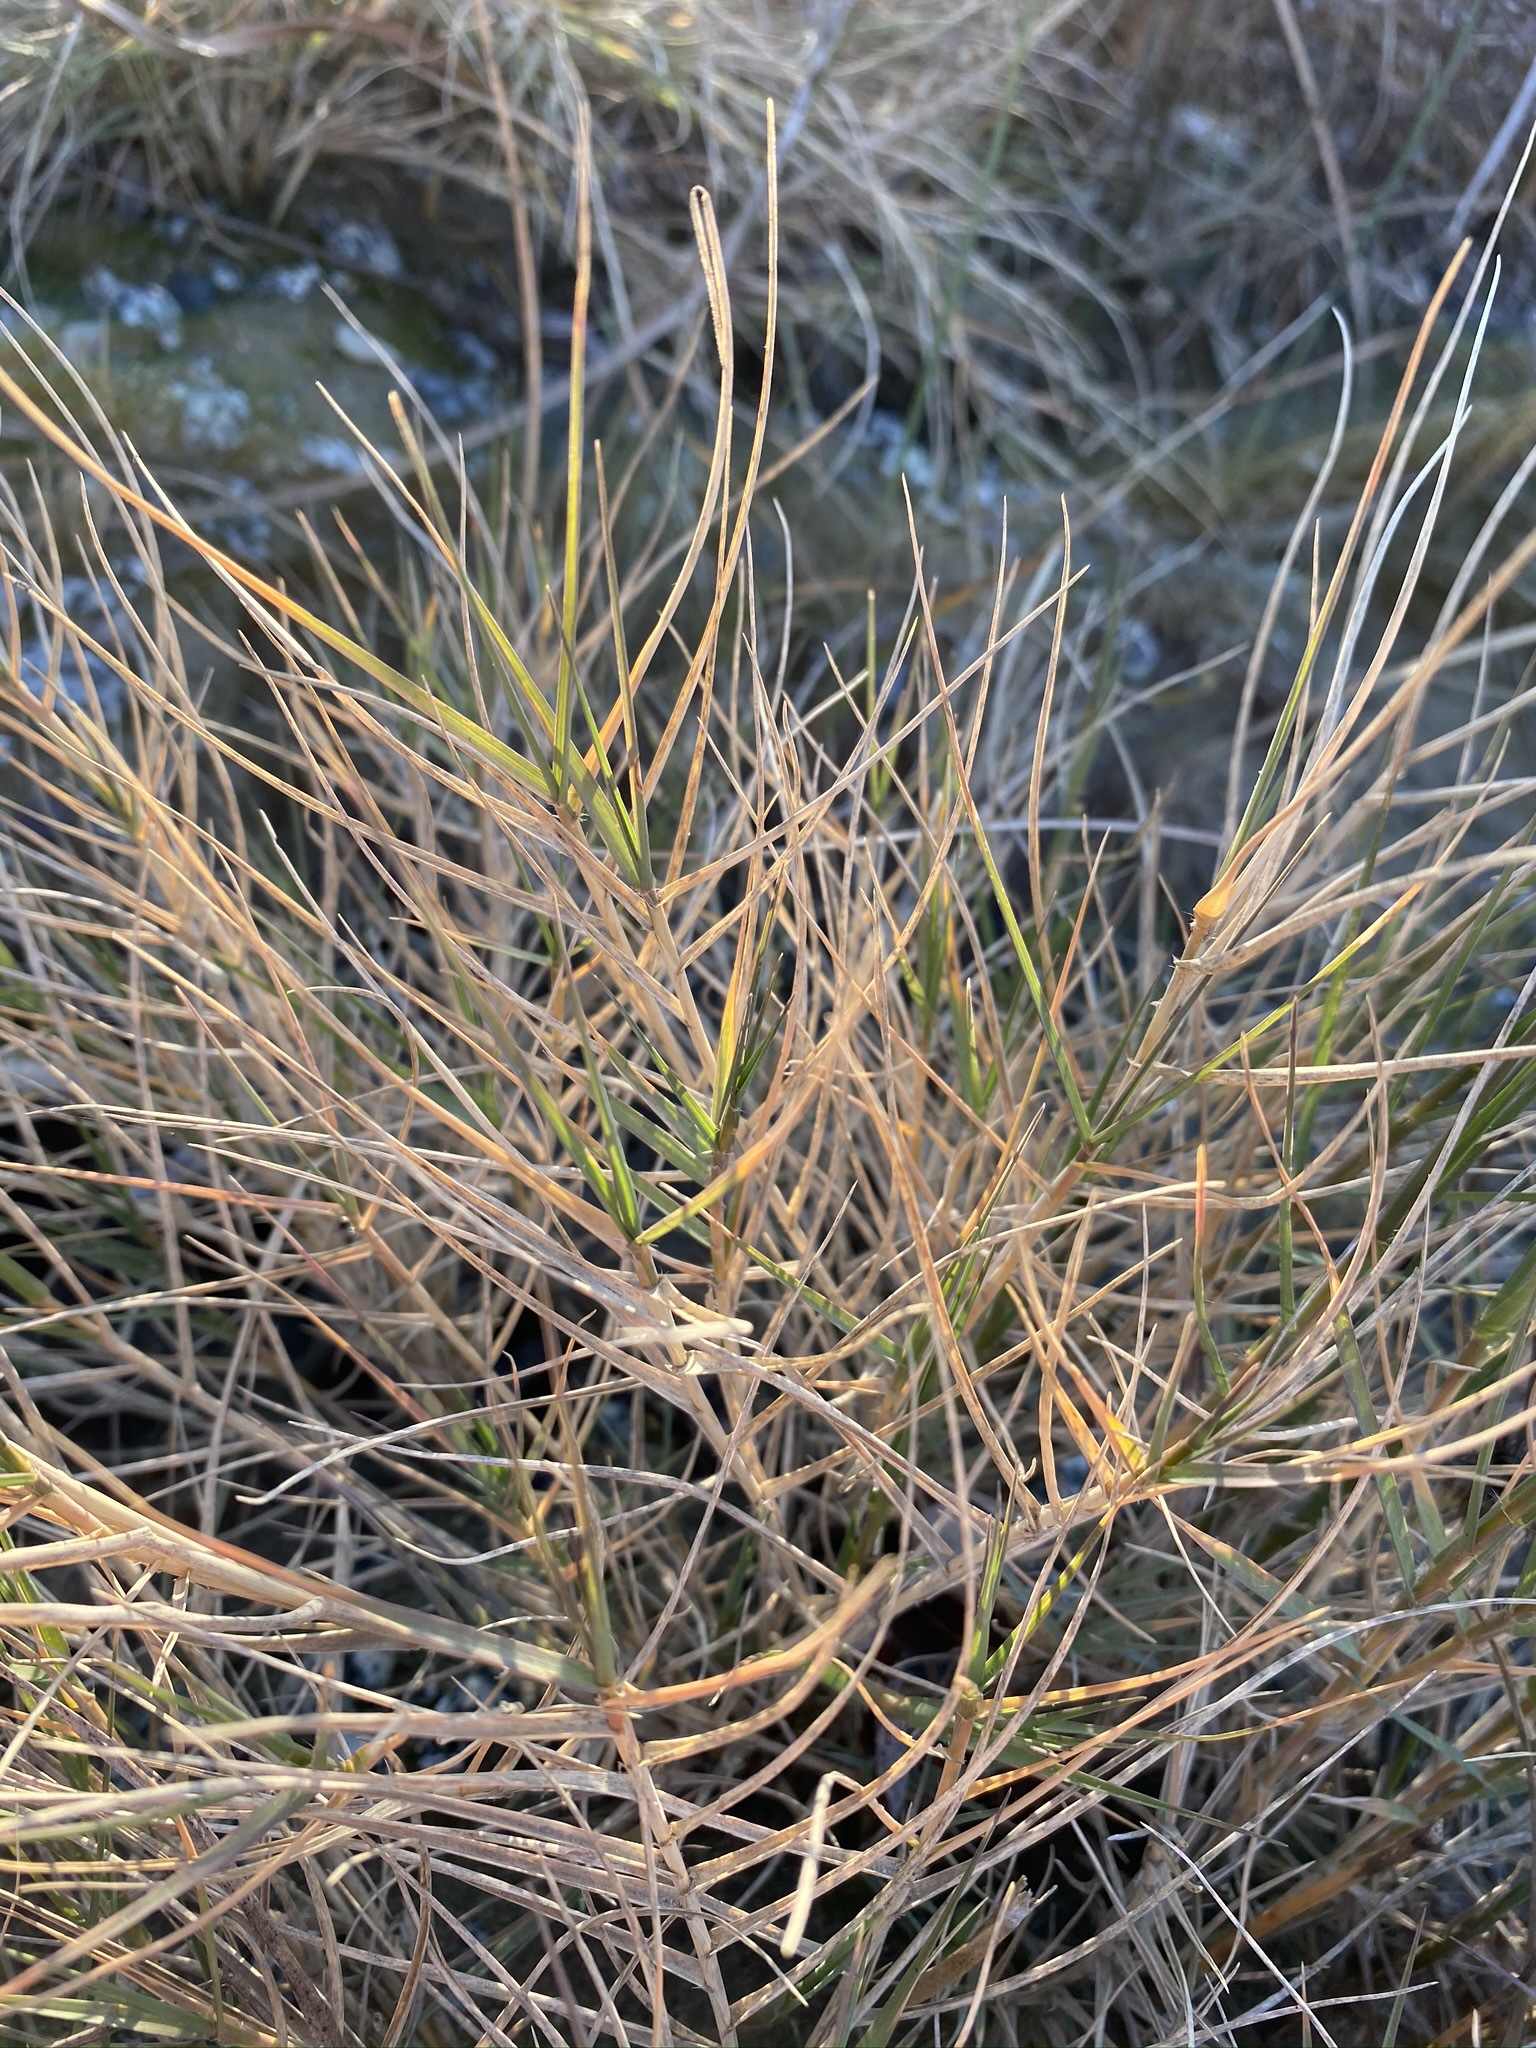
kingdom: Plantae
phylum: Tracheophyta
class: Liliopsida
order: Poales
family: Poaceae
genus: Distichlis
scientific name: Distichlis spicata
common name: Saltgrass
